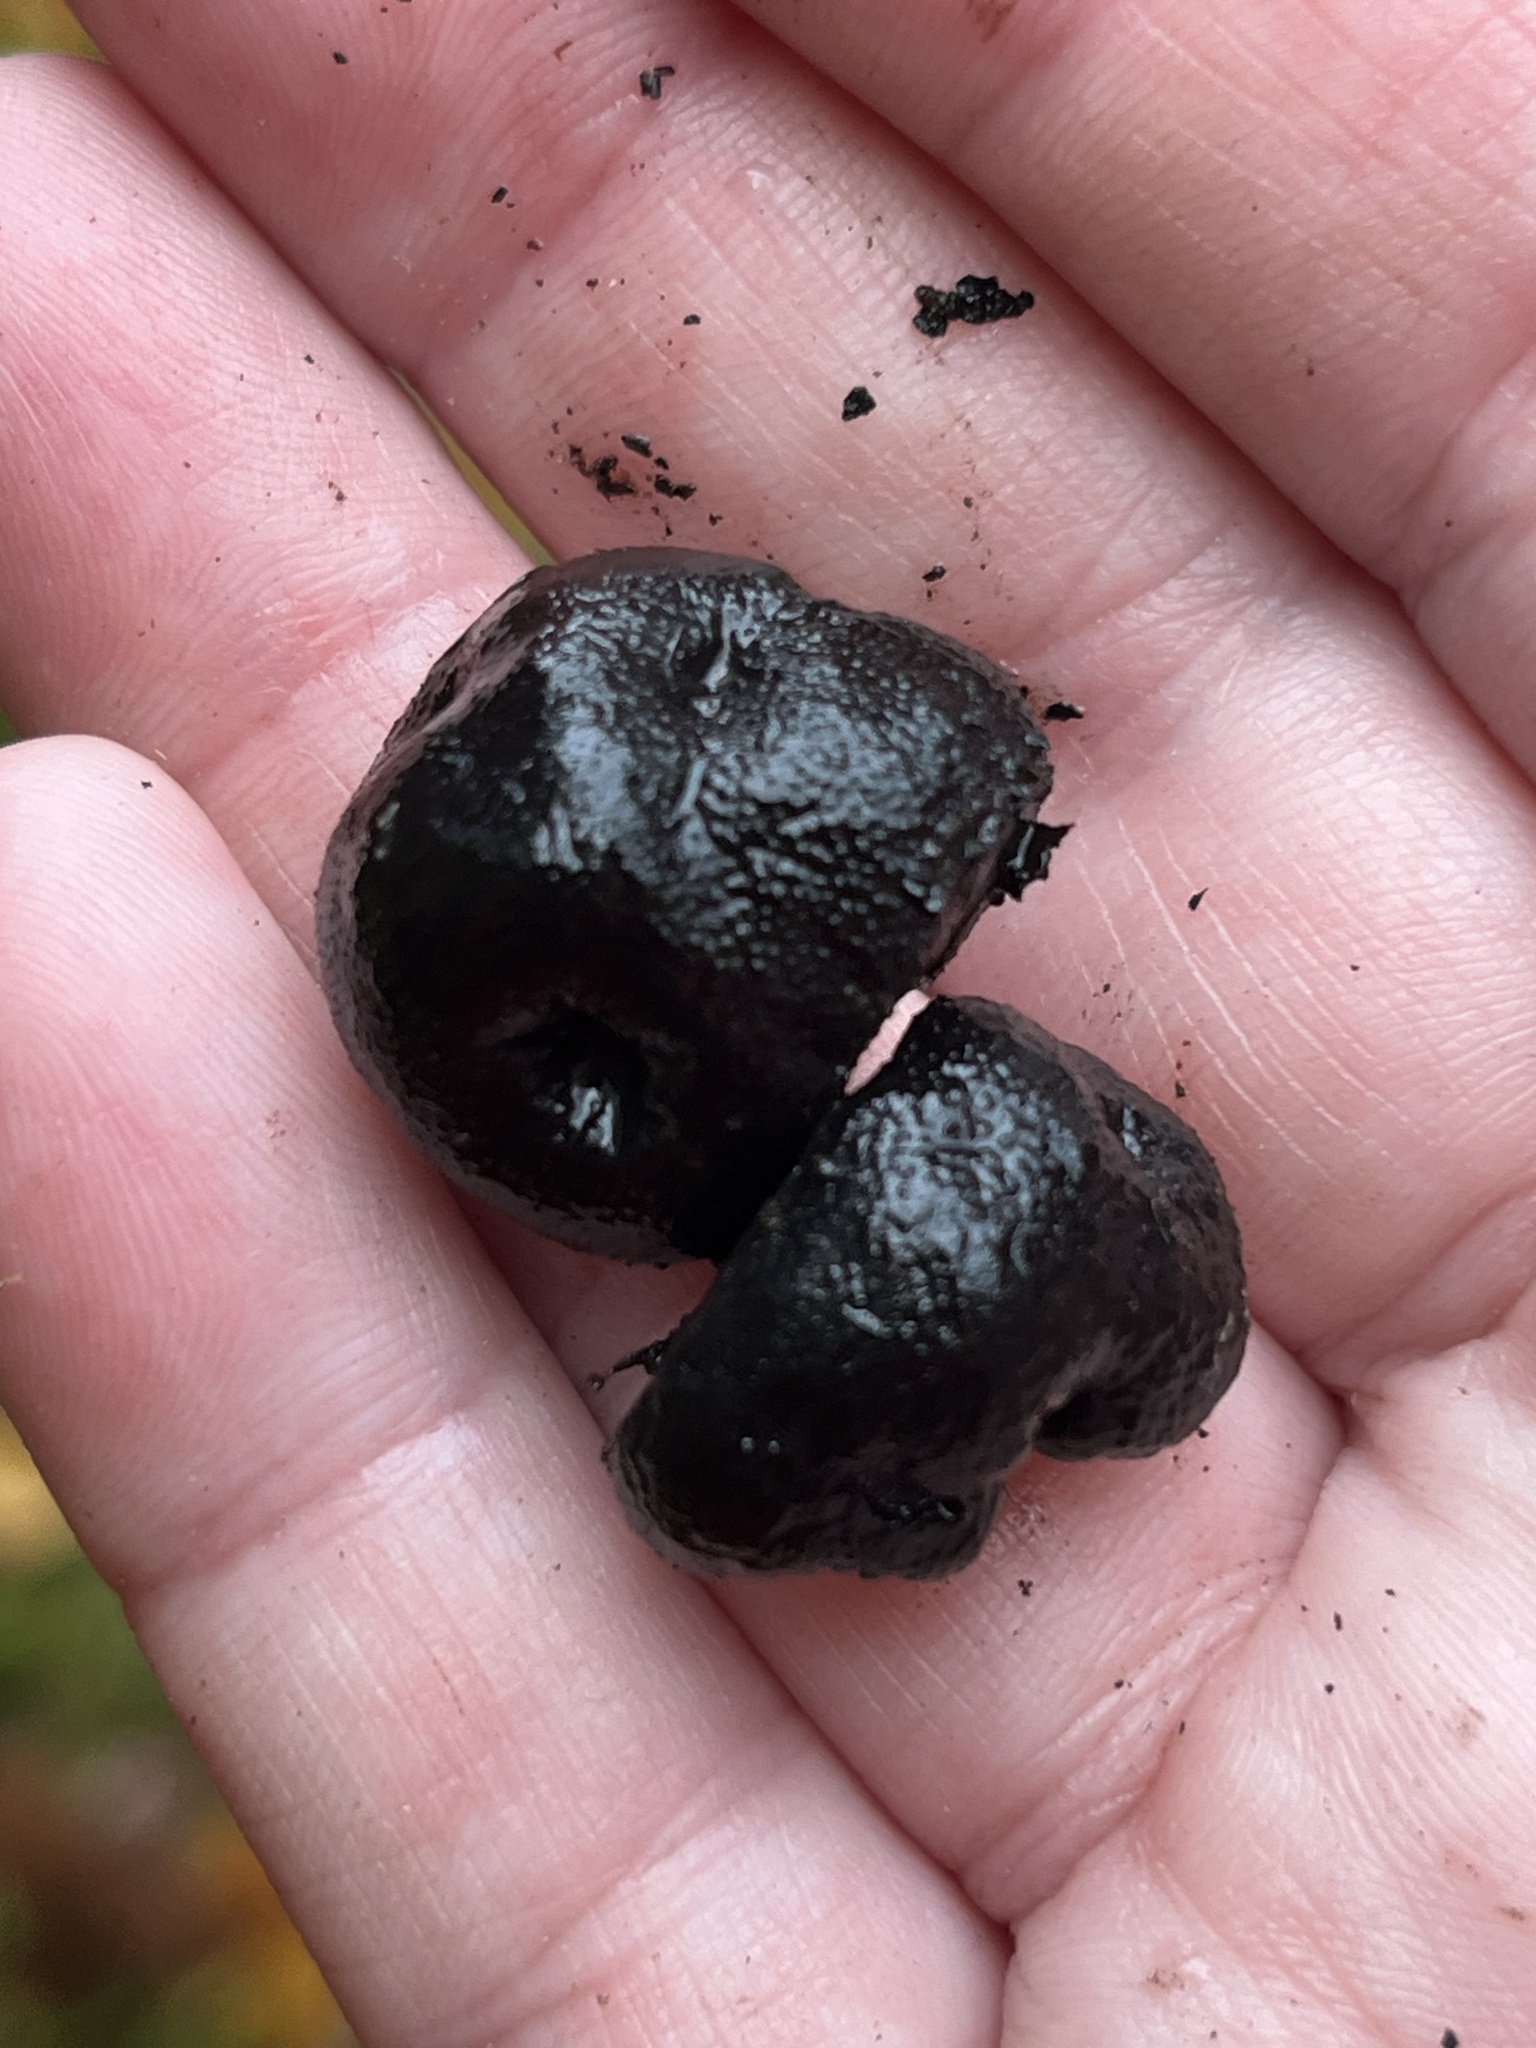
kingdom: Fungi
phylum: Ascomycota
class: Sordariomycetes
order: Boliniales
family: Boliniaceae
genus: Camarops
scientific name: Camarops petersii
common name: Dog's nose fungus
